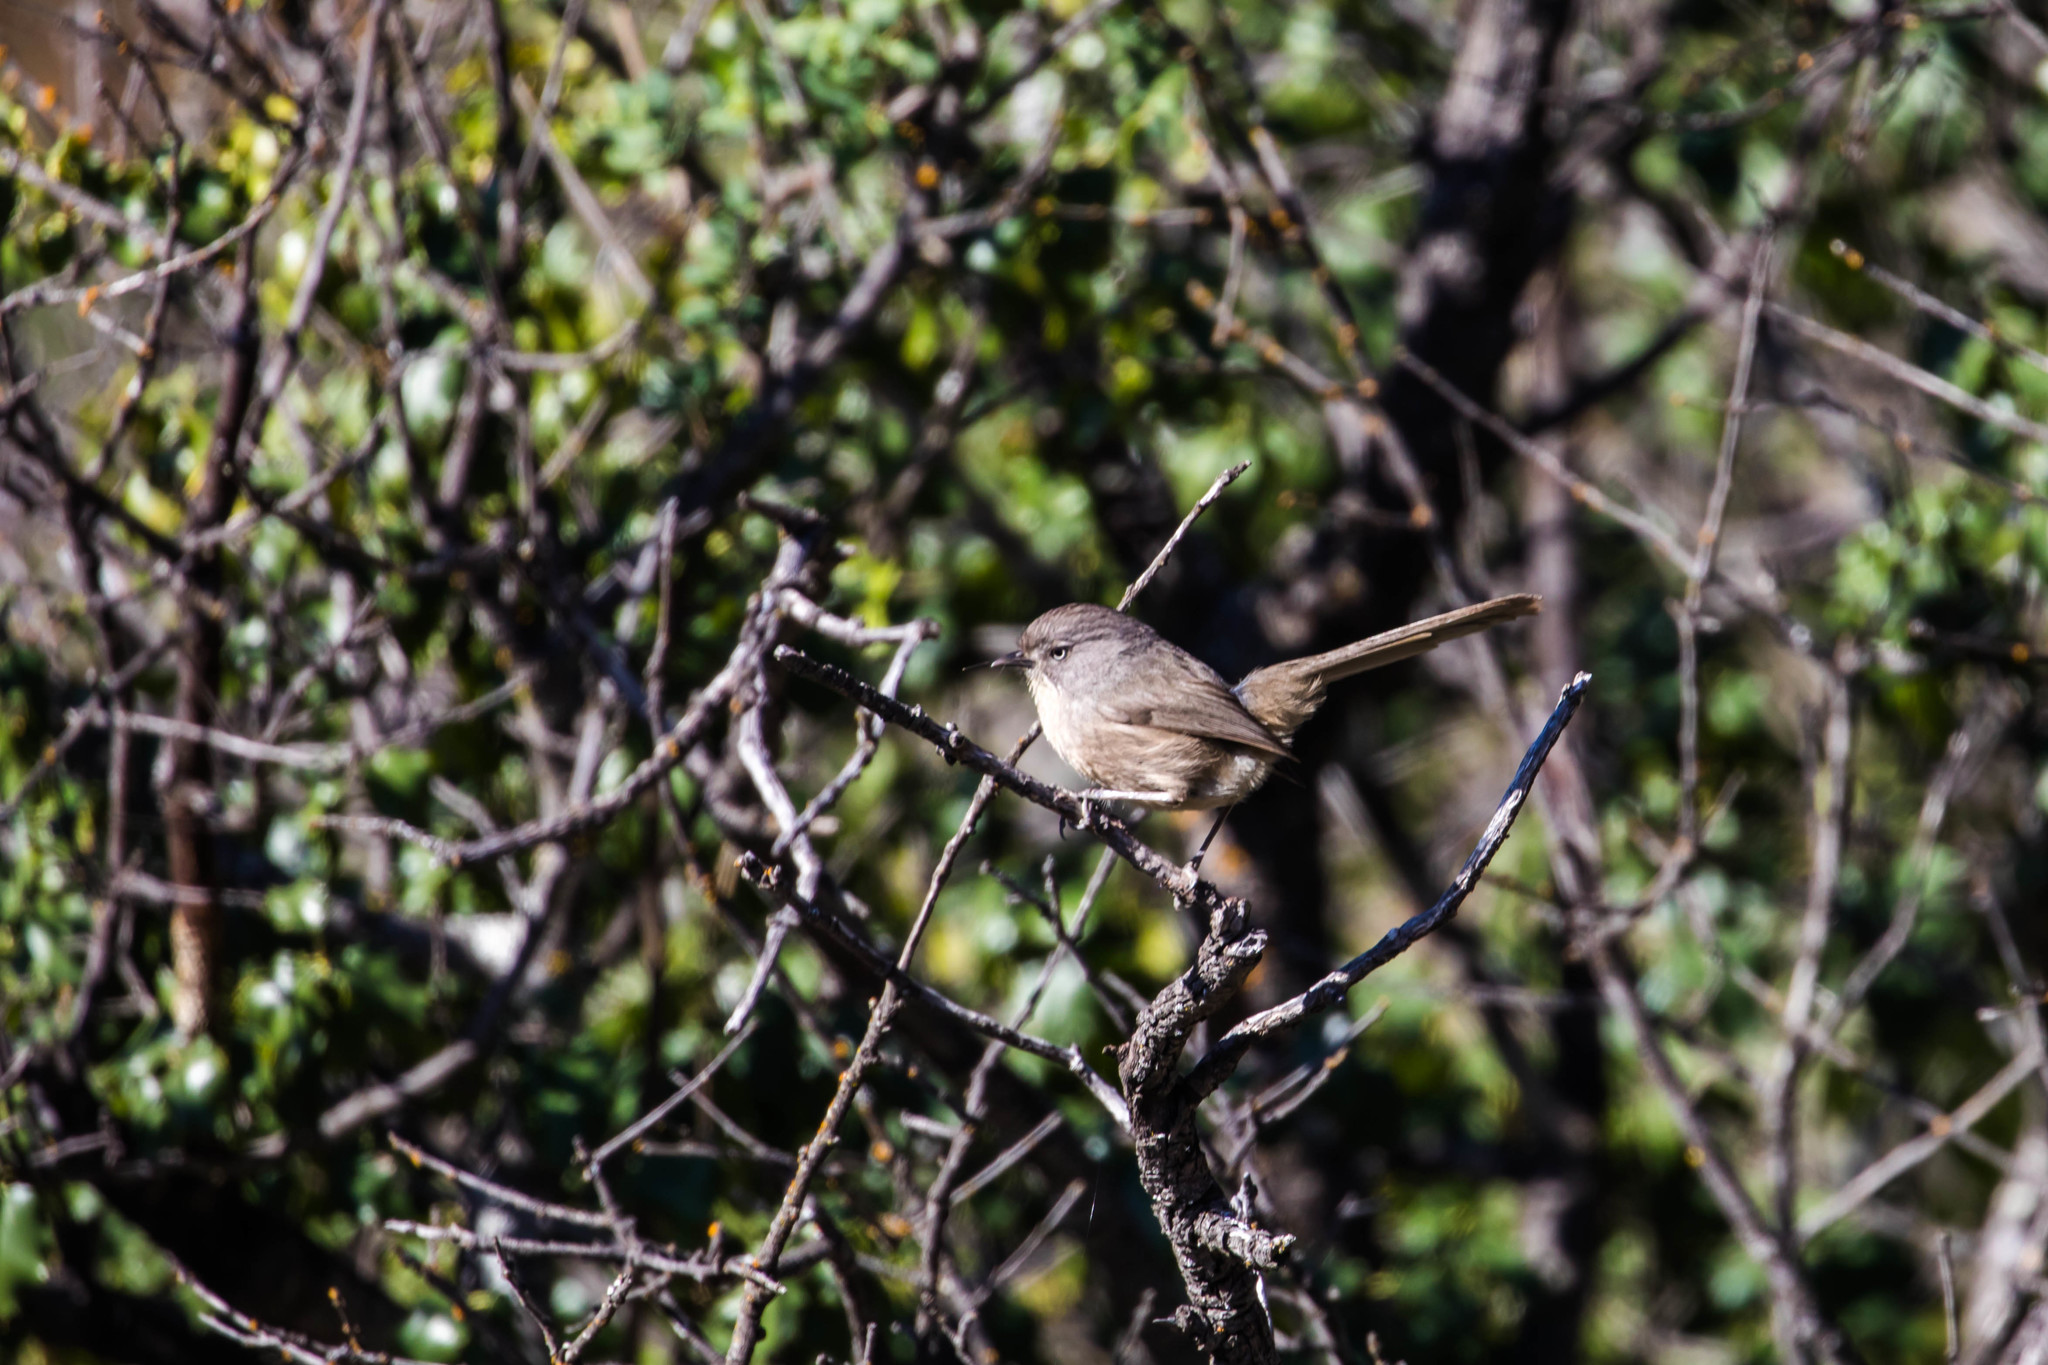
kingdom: Animalia
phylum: Chordata
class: Aves
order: Passeriformes
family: Sylviidae
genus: Chamaea
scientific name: Chamaea fasciata
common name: Wrentit
